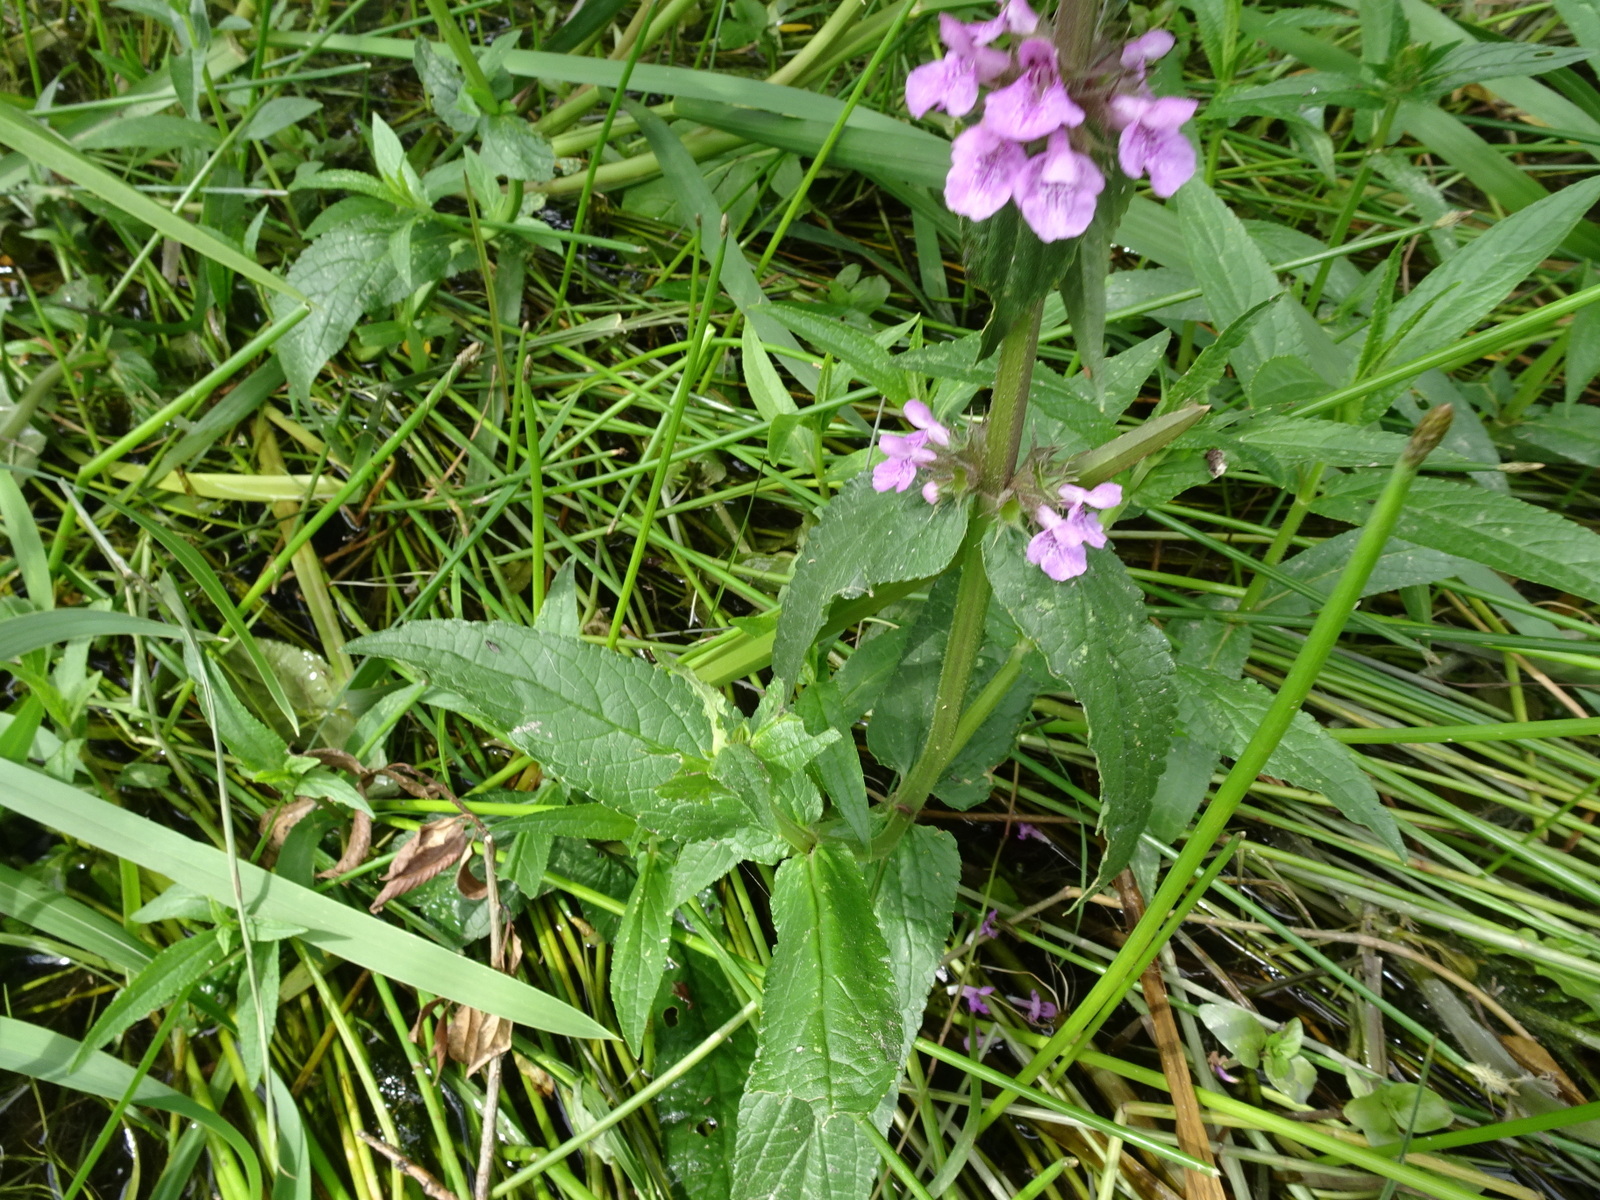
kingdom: Plantae
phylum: Tracheophyta
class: Magnoliopsida
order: Lamiales
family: Lamiaceae
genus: Stachys
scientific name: Stachys palustris
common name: Marsh woundwort
